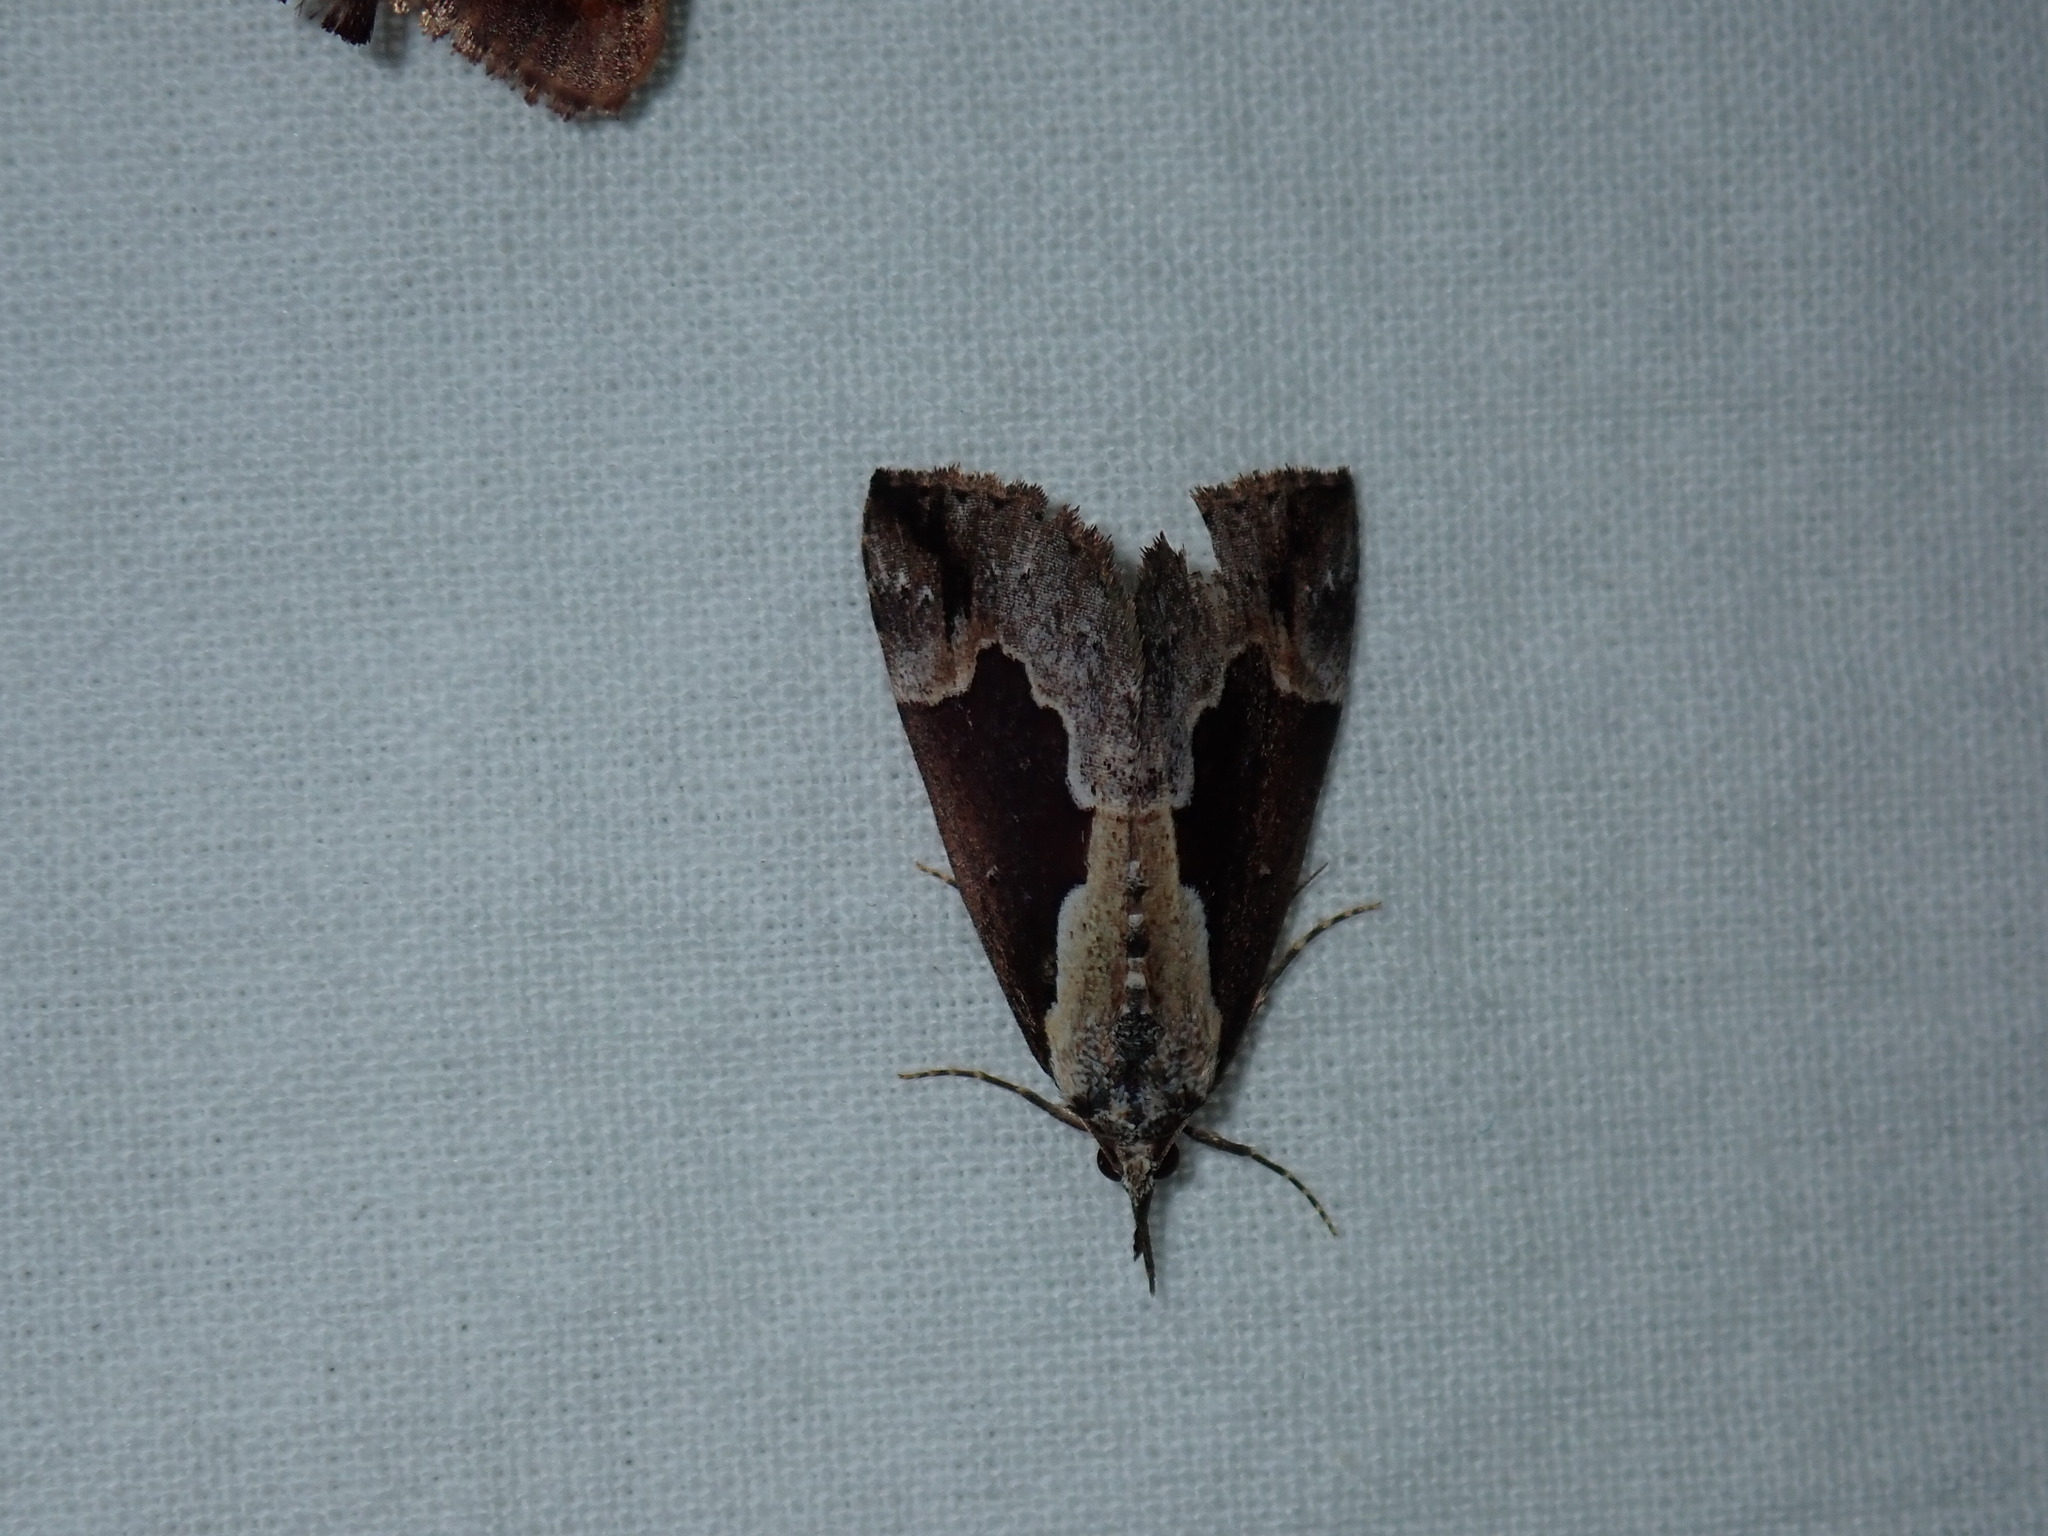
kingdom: Animalia
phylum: Arthropoda
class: Insecta
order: Lepidoptera
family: Erebidae
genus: Hypena
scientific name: Hypena baltimoralis
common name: Baltimore snout
